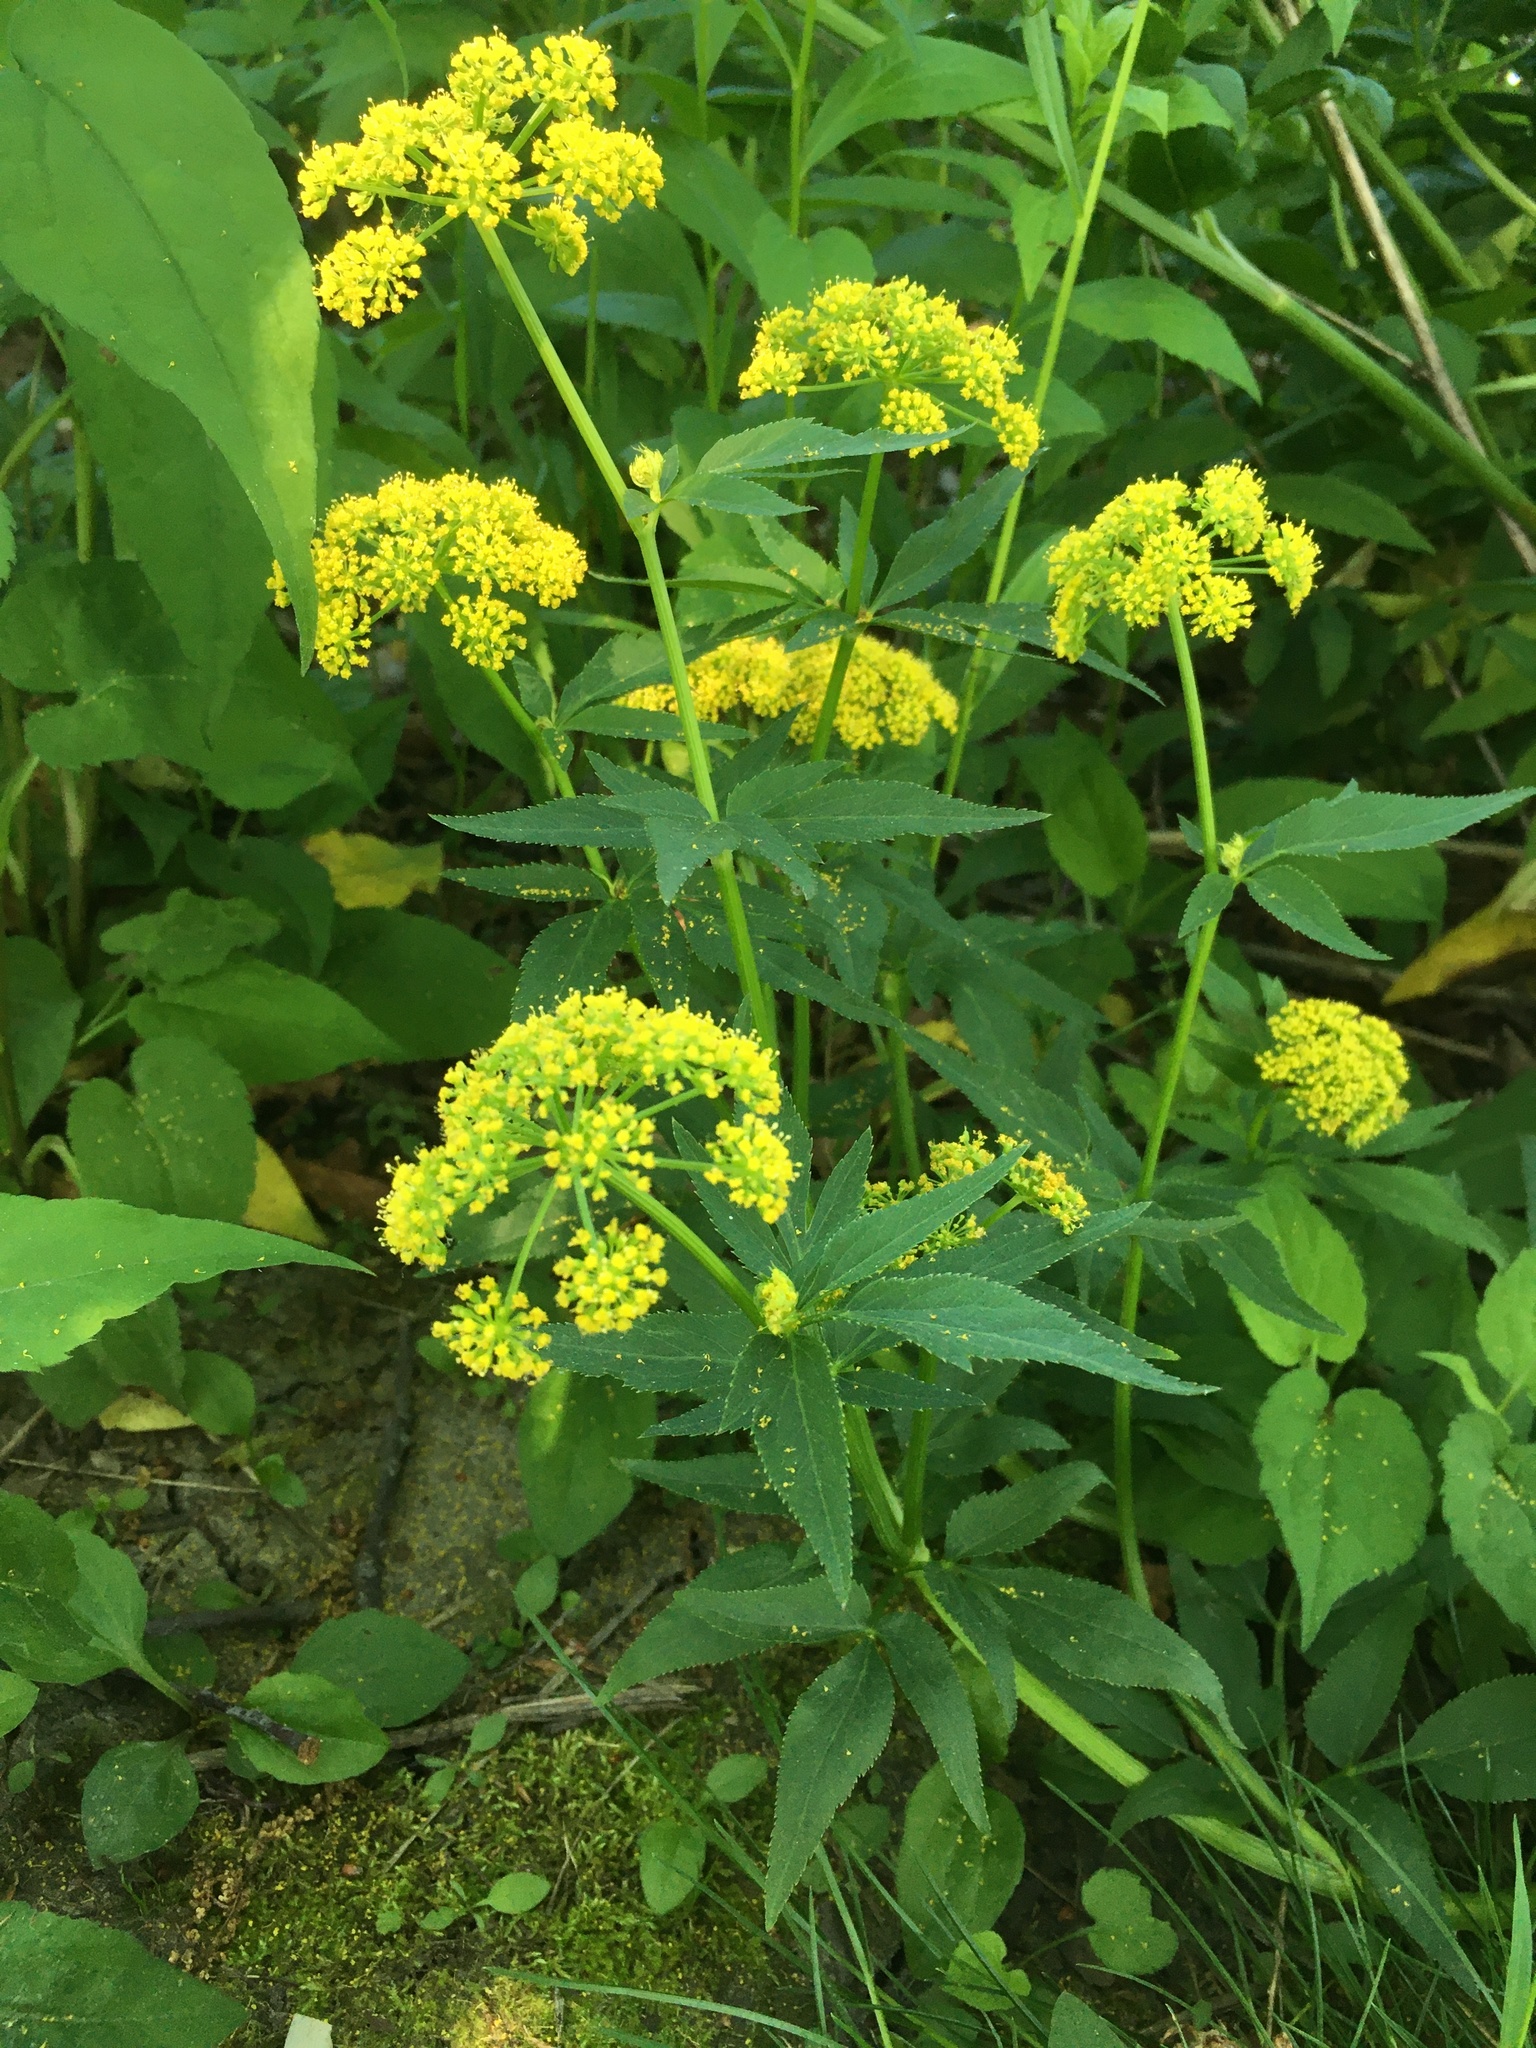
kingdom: Plantae
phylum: Tracheophyta
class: Magnoliopsida
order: Apiales
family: Apiaceae
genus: Zizia
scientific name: Zizia aurea
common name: Golden alexanders
